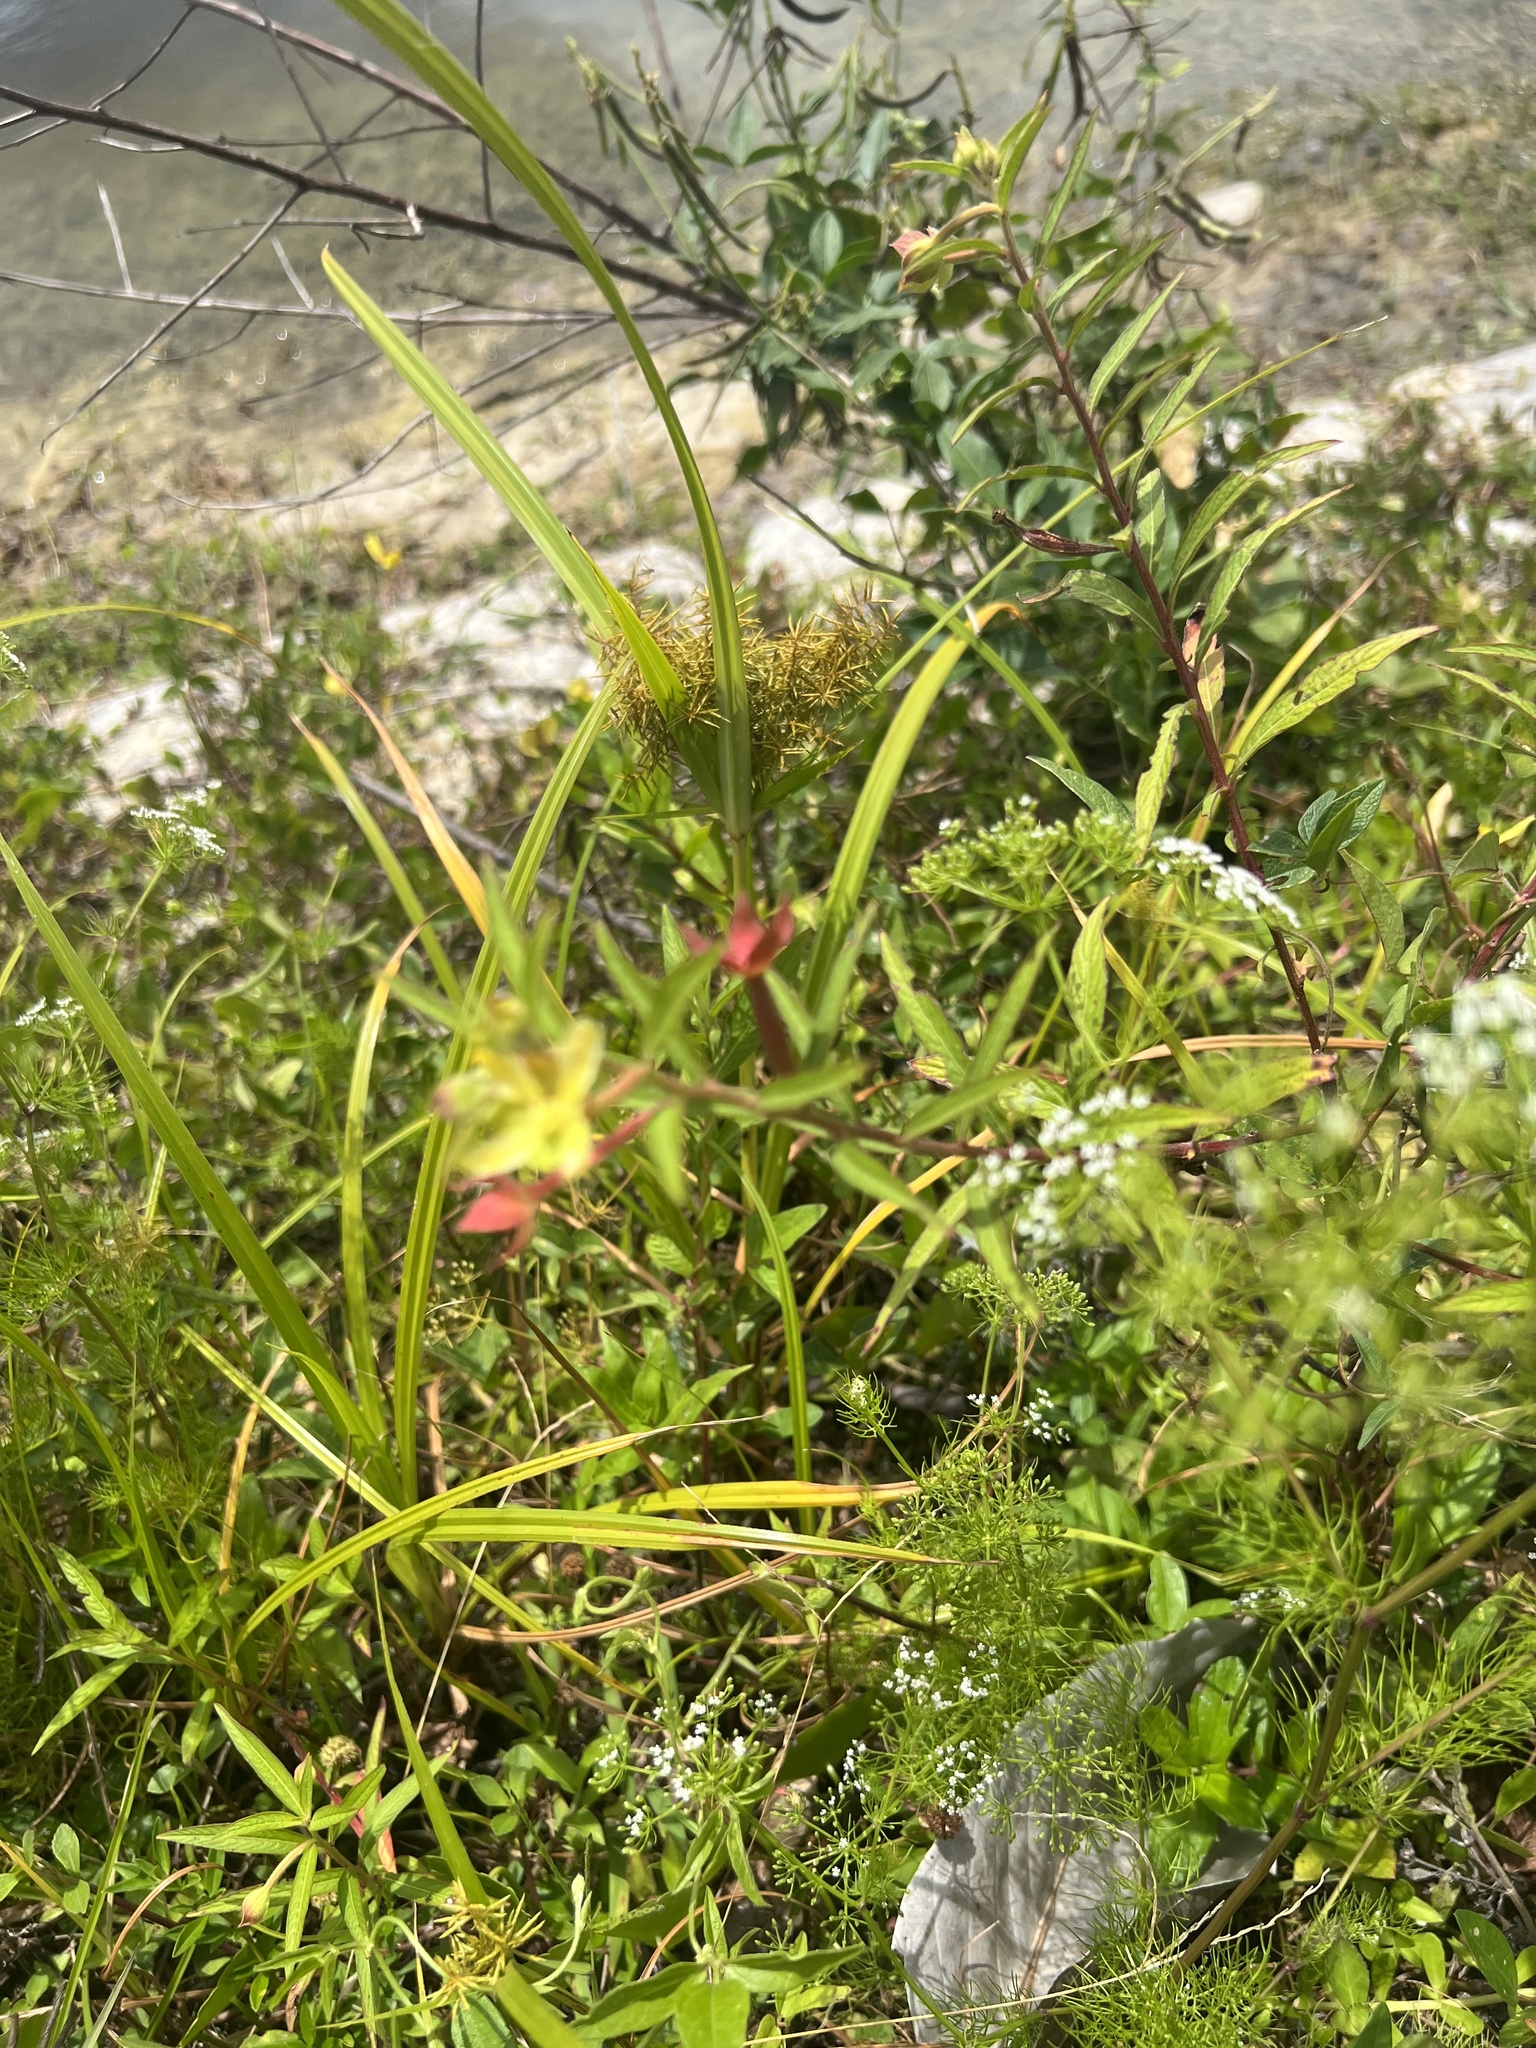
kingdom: Plantae
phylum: Tracheophyta
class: Magnoliopsida
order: Myrtales
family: Onagraceae
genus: Ludwigia
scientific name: Ludwigia octovalvis
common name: Water-primrose
